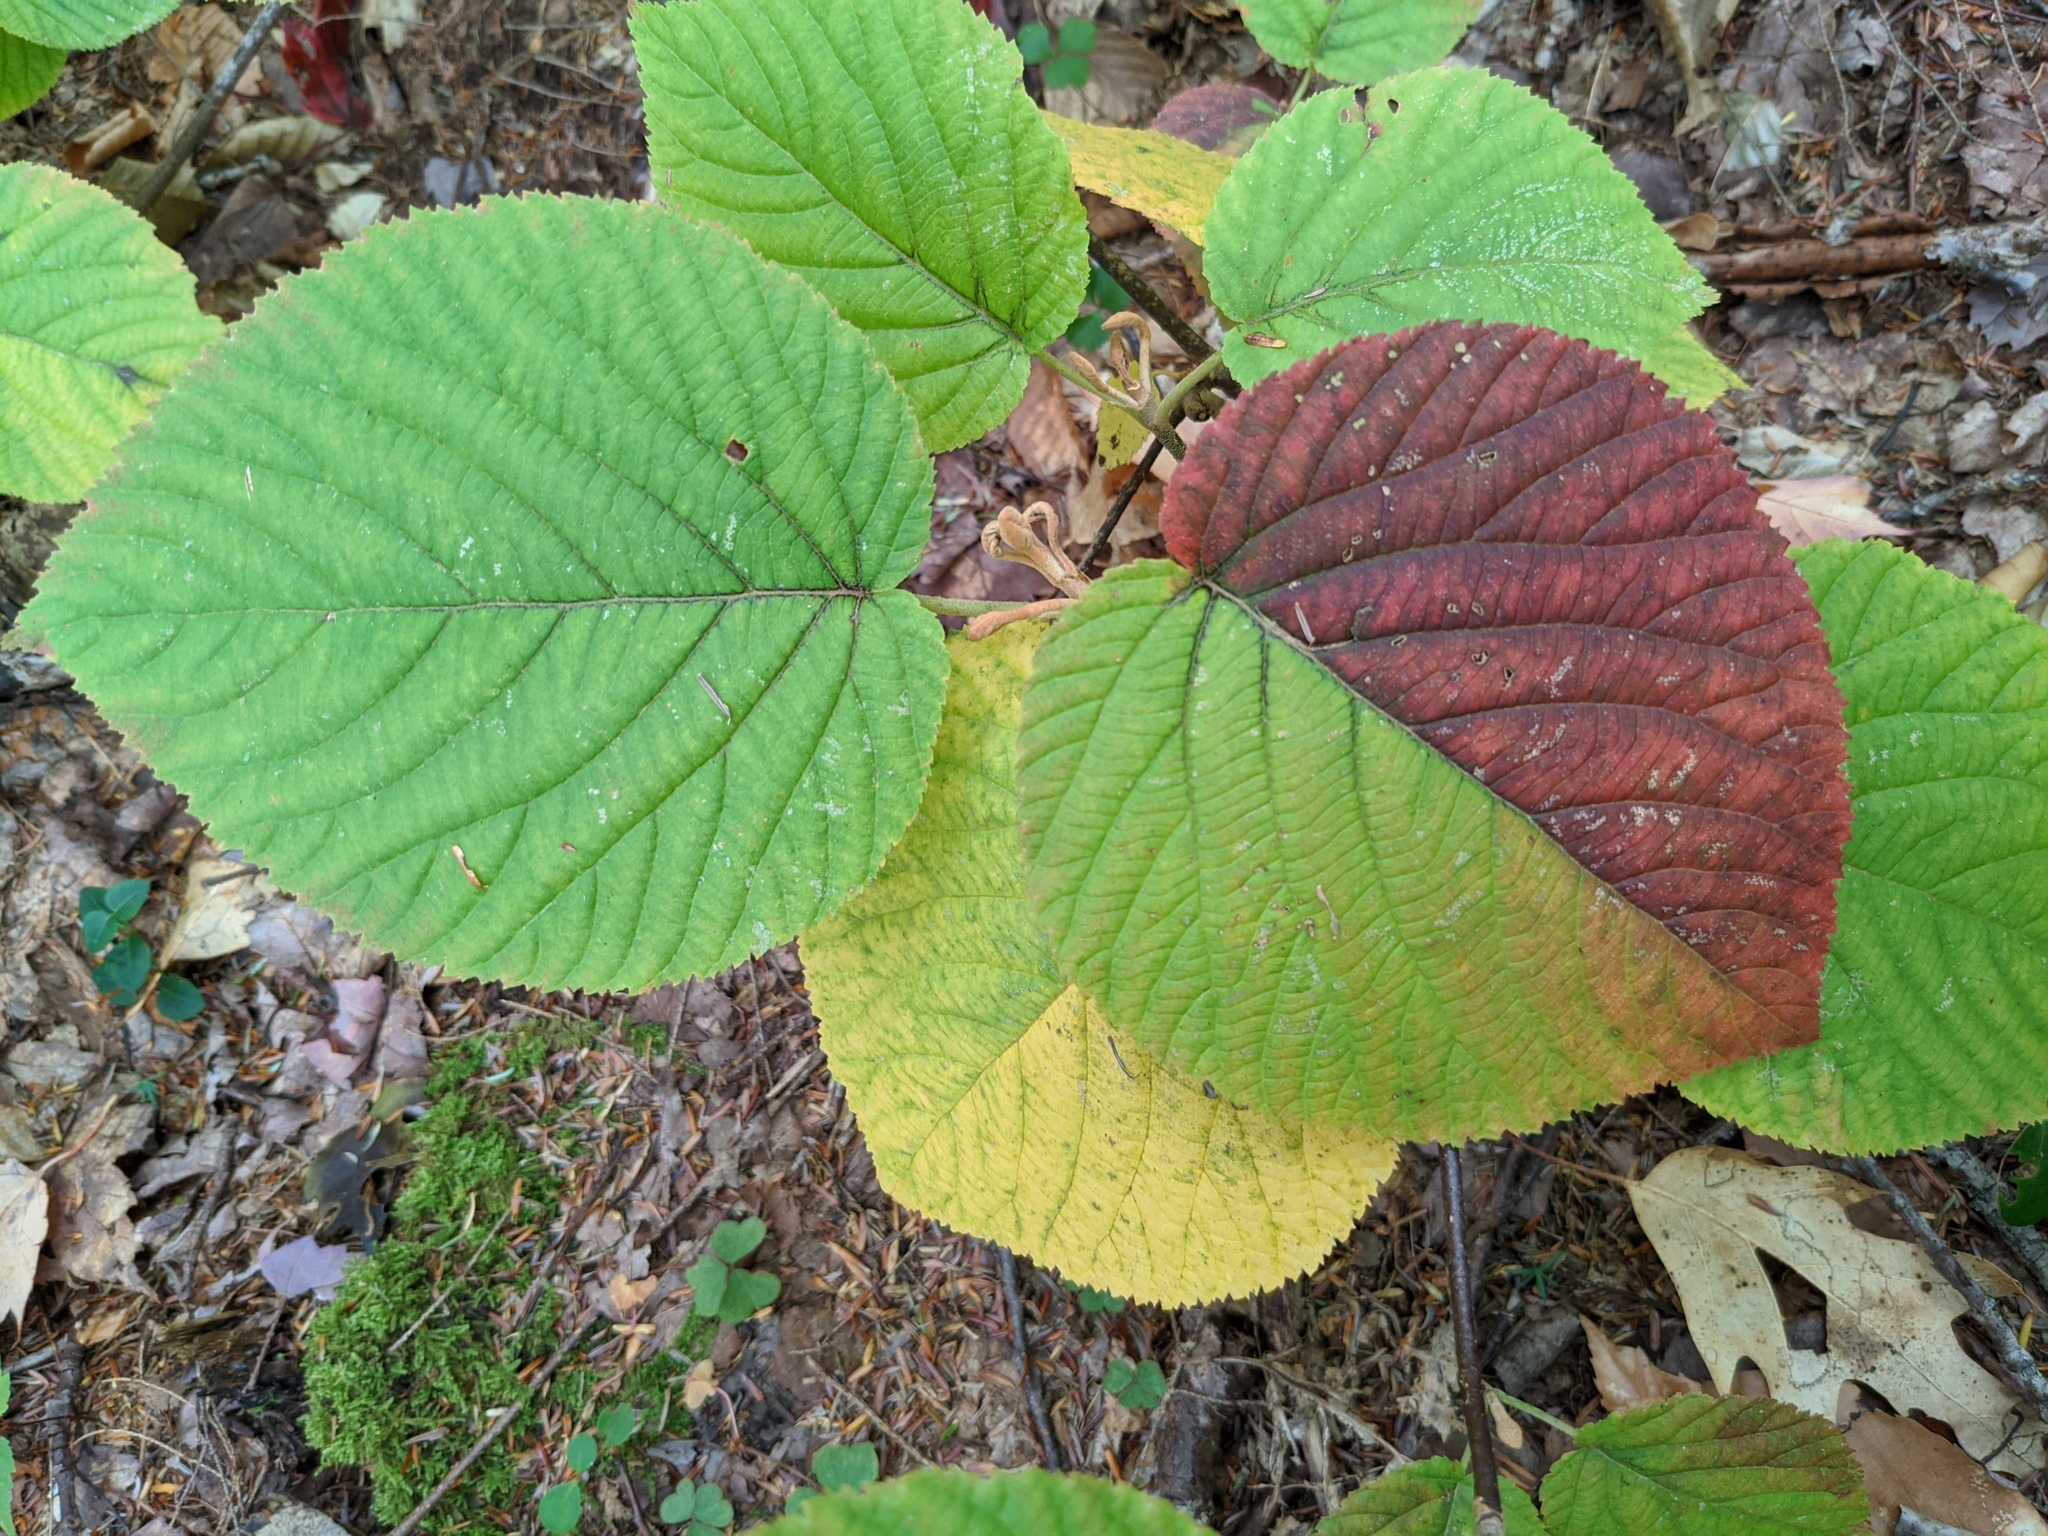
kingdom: Plantae
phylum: Tracheophyta
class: Magnoliopsida
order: Dipsacales
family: Viburnaceae
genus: Viburnum
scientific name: Viburnum lantanoides
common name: Hobblebush
